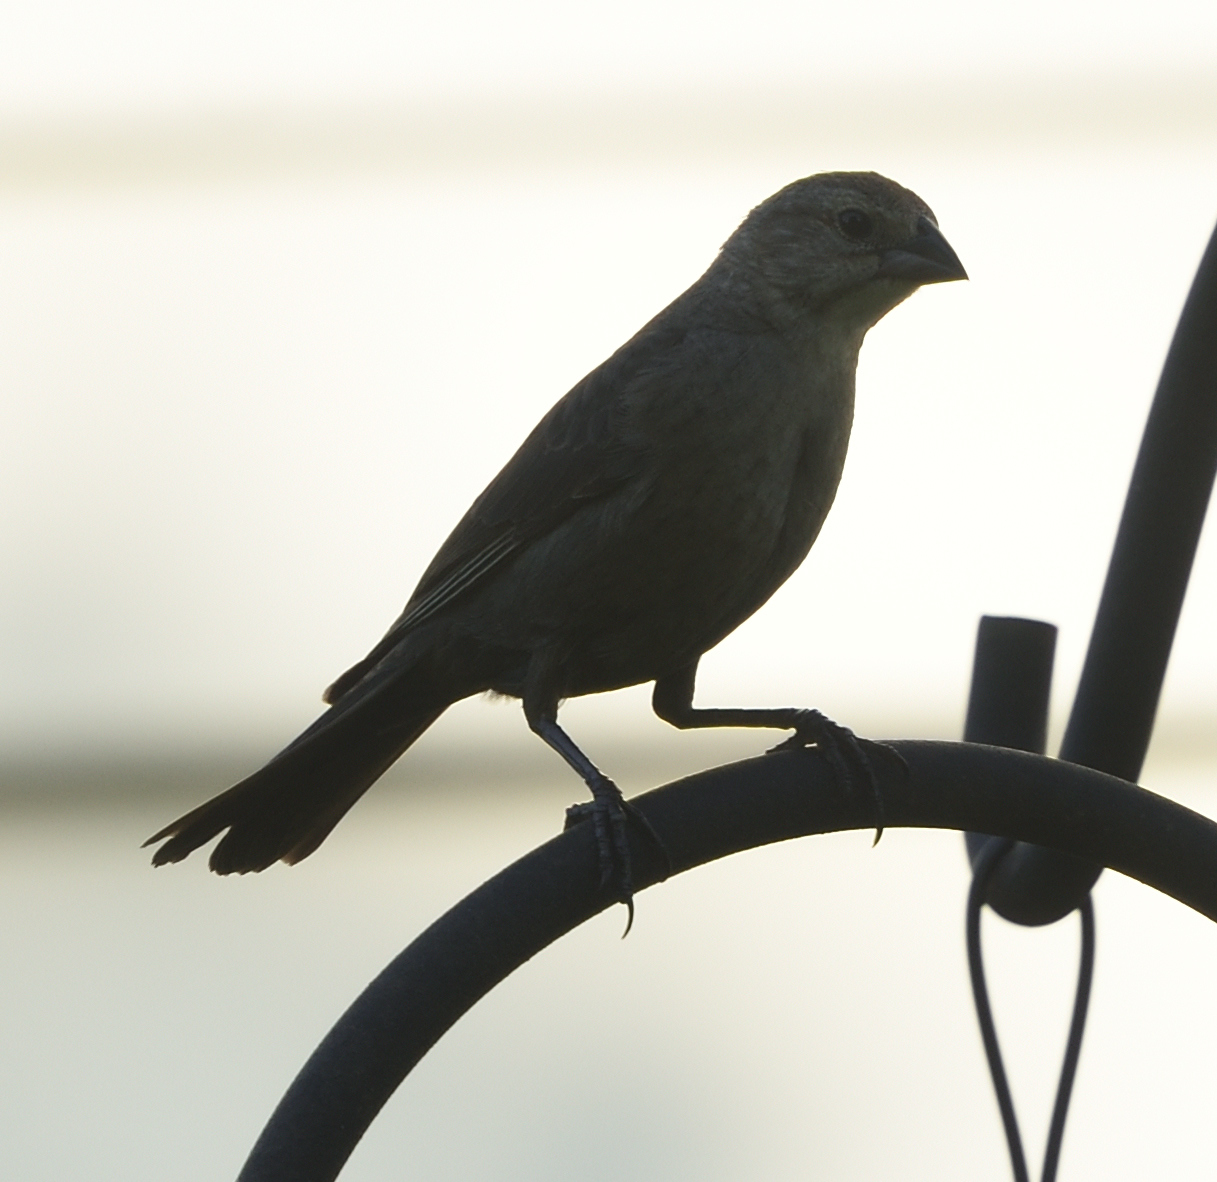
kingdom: Animalia
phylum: Chordata
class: Aves
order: Passeriformes
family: Icteridae
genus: Molothrus
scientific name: Molothrus ater
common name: Brown-headed cowbird
